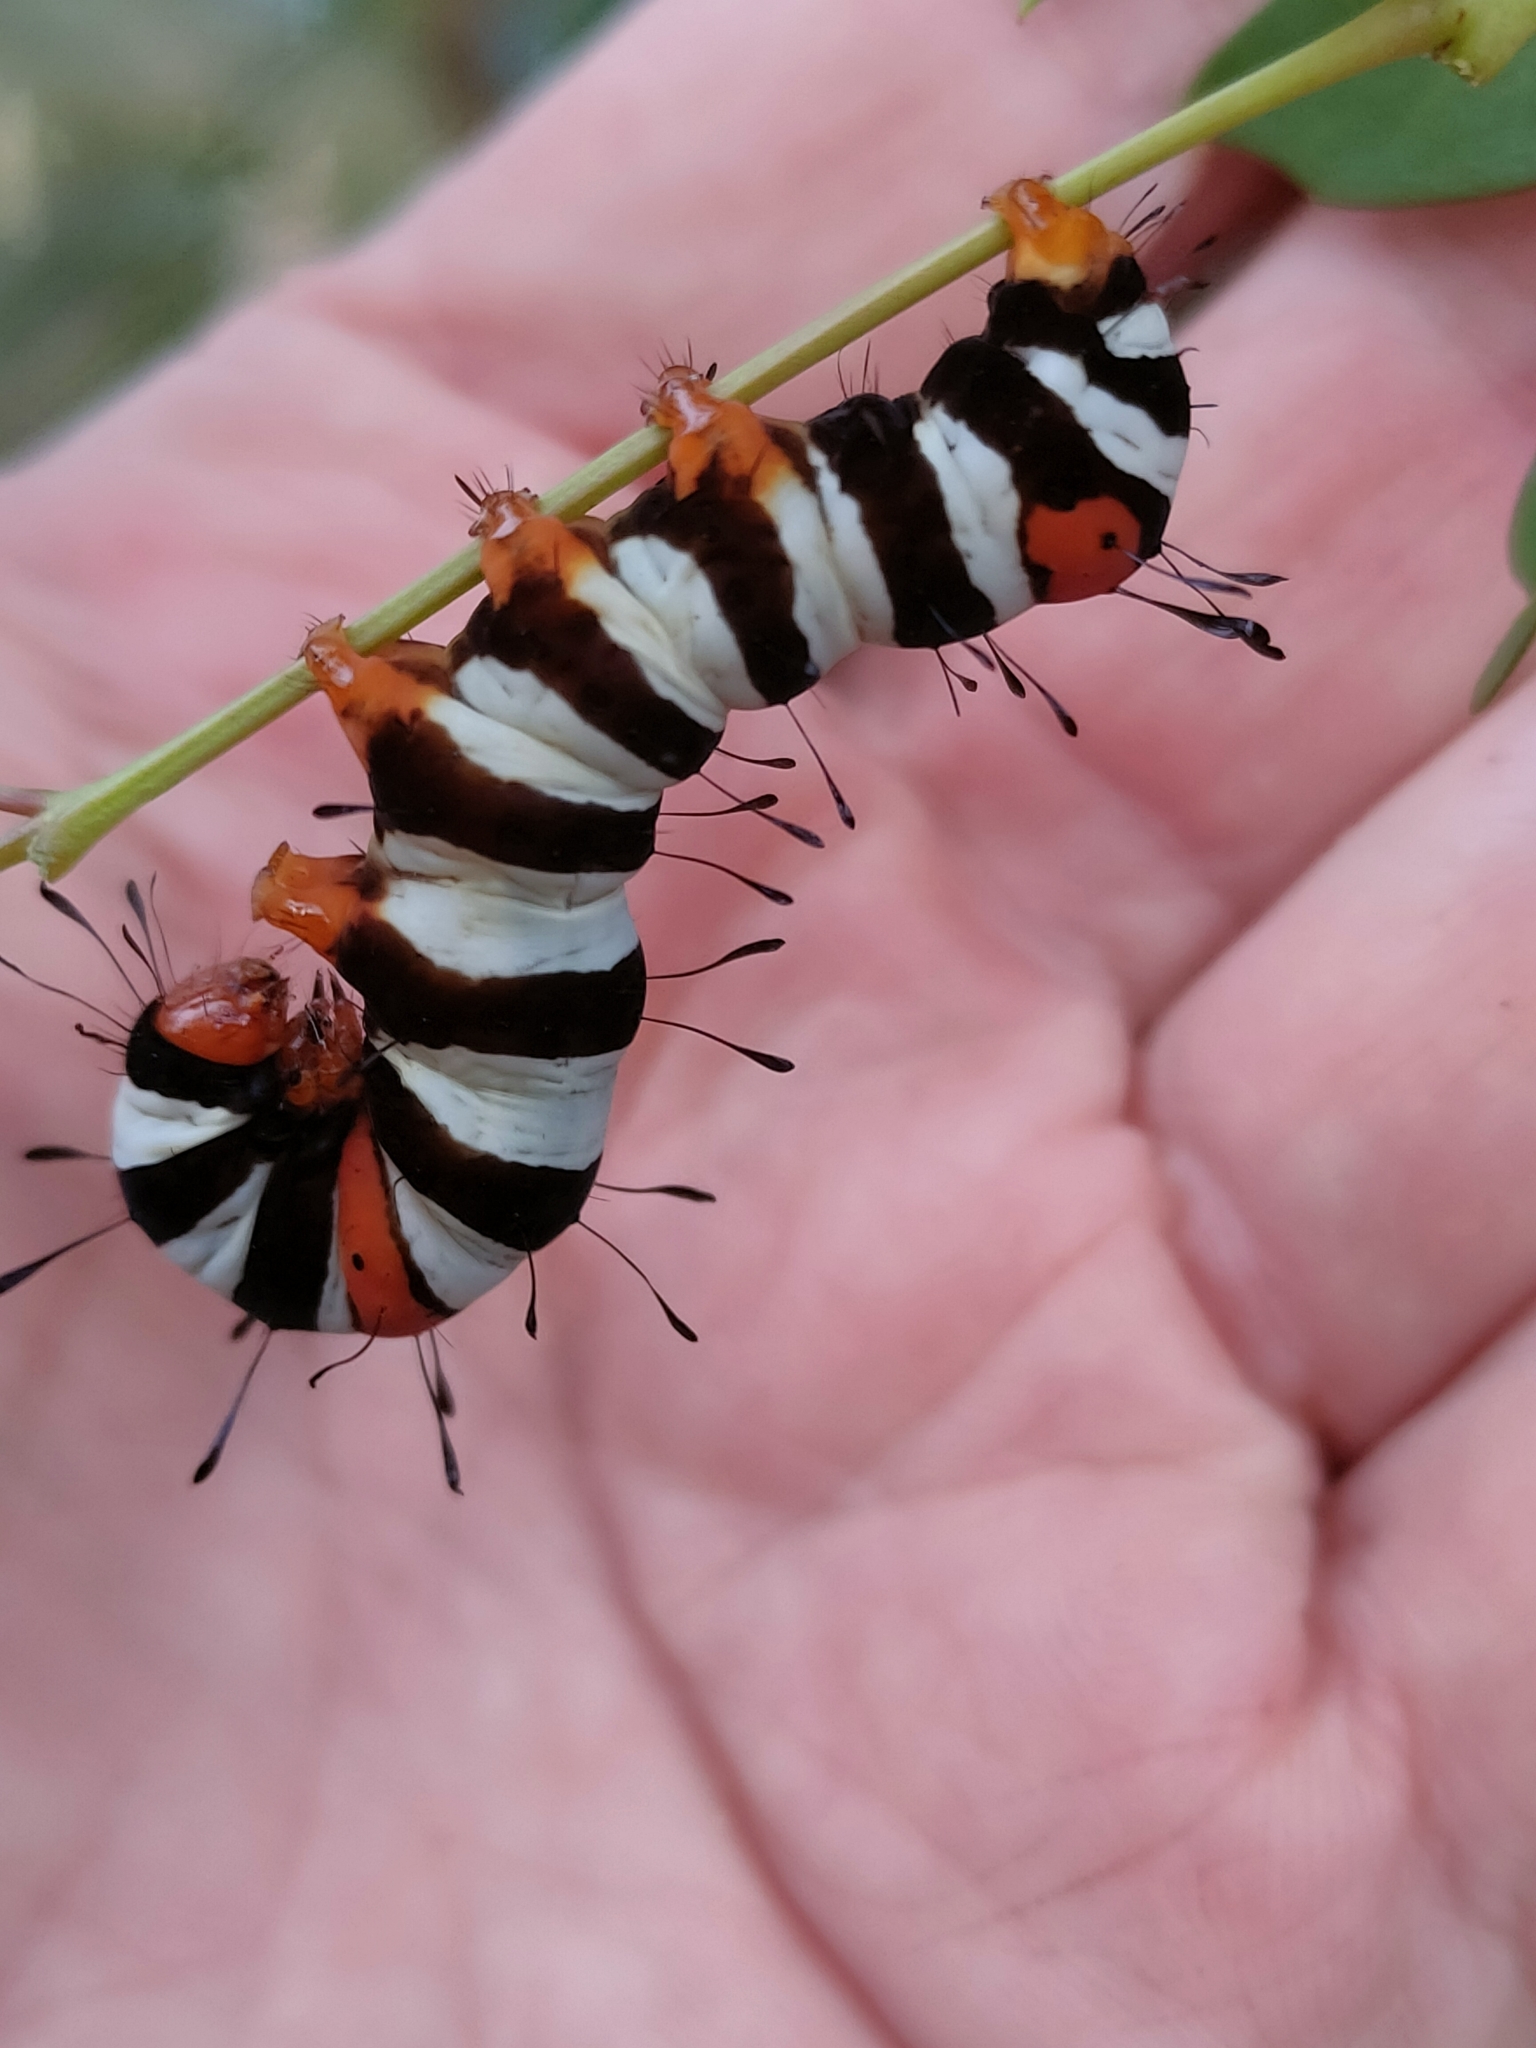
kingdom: Animalia
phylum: Arthropoda
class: Insecta
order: Lepidoptera
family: Noctuidae
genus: Agarista
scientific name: Agarista agricola
